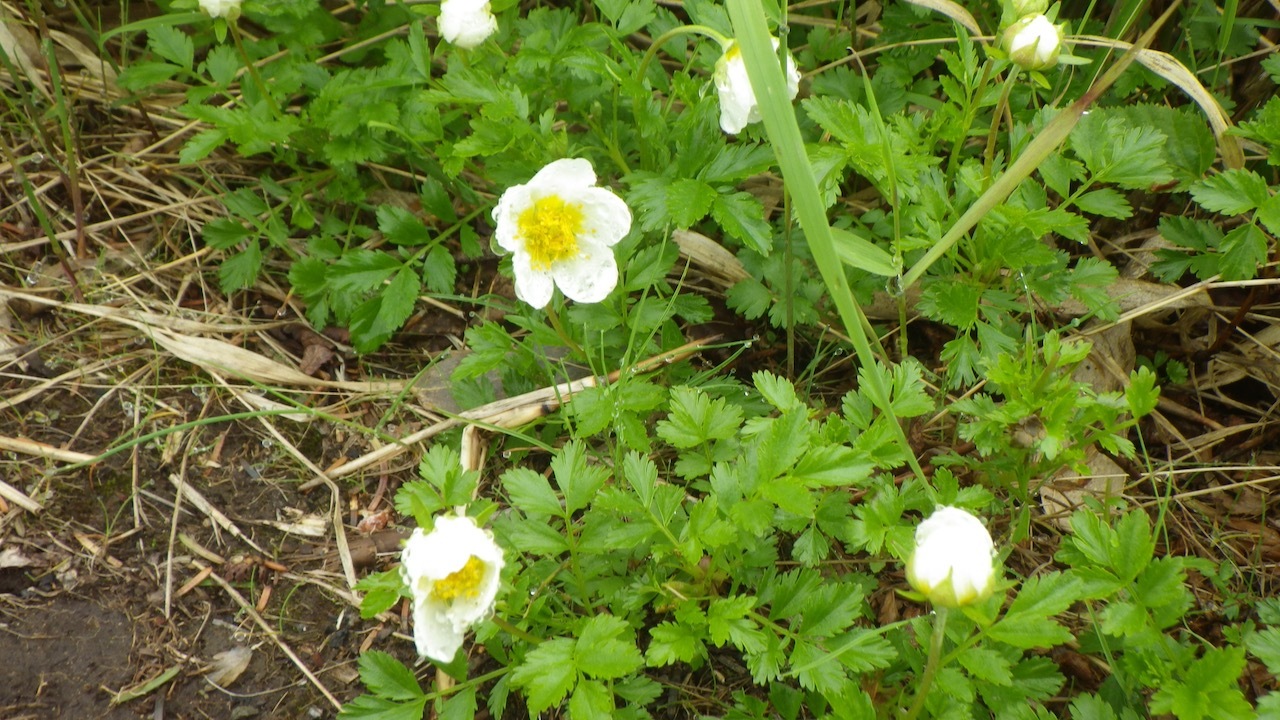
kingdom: Plantae
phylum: Tracheophyta
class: Magnoliopsida
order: Rosales
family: Rosaceae
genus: Geum
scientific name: Geum pentapetalum
